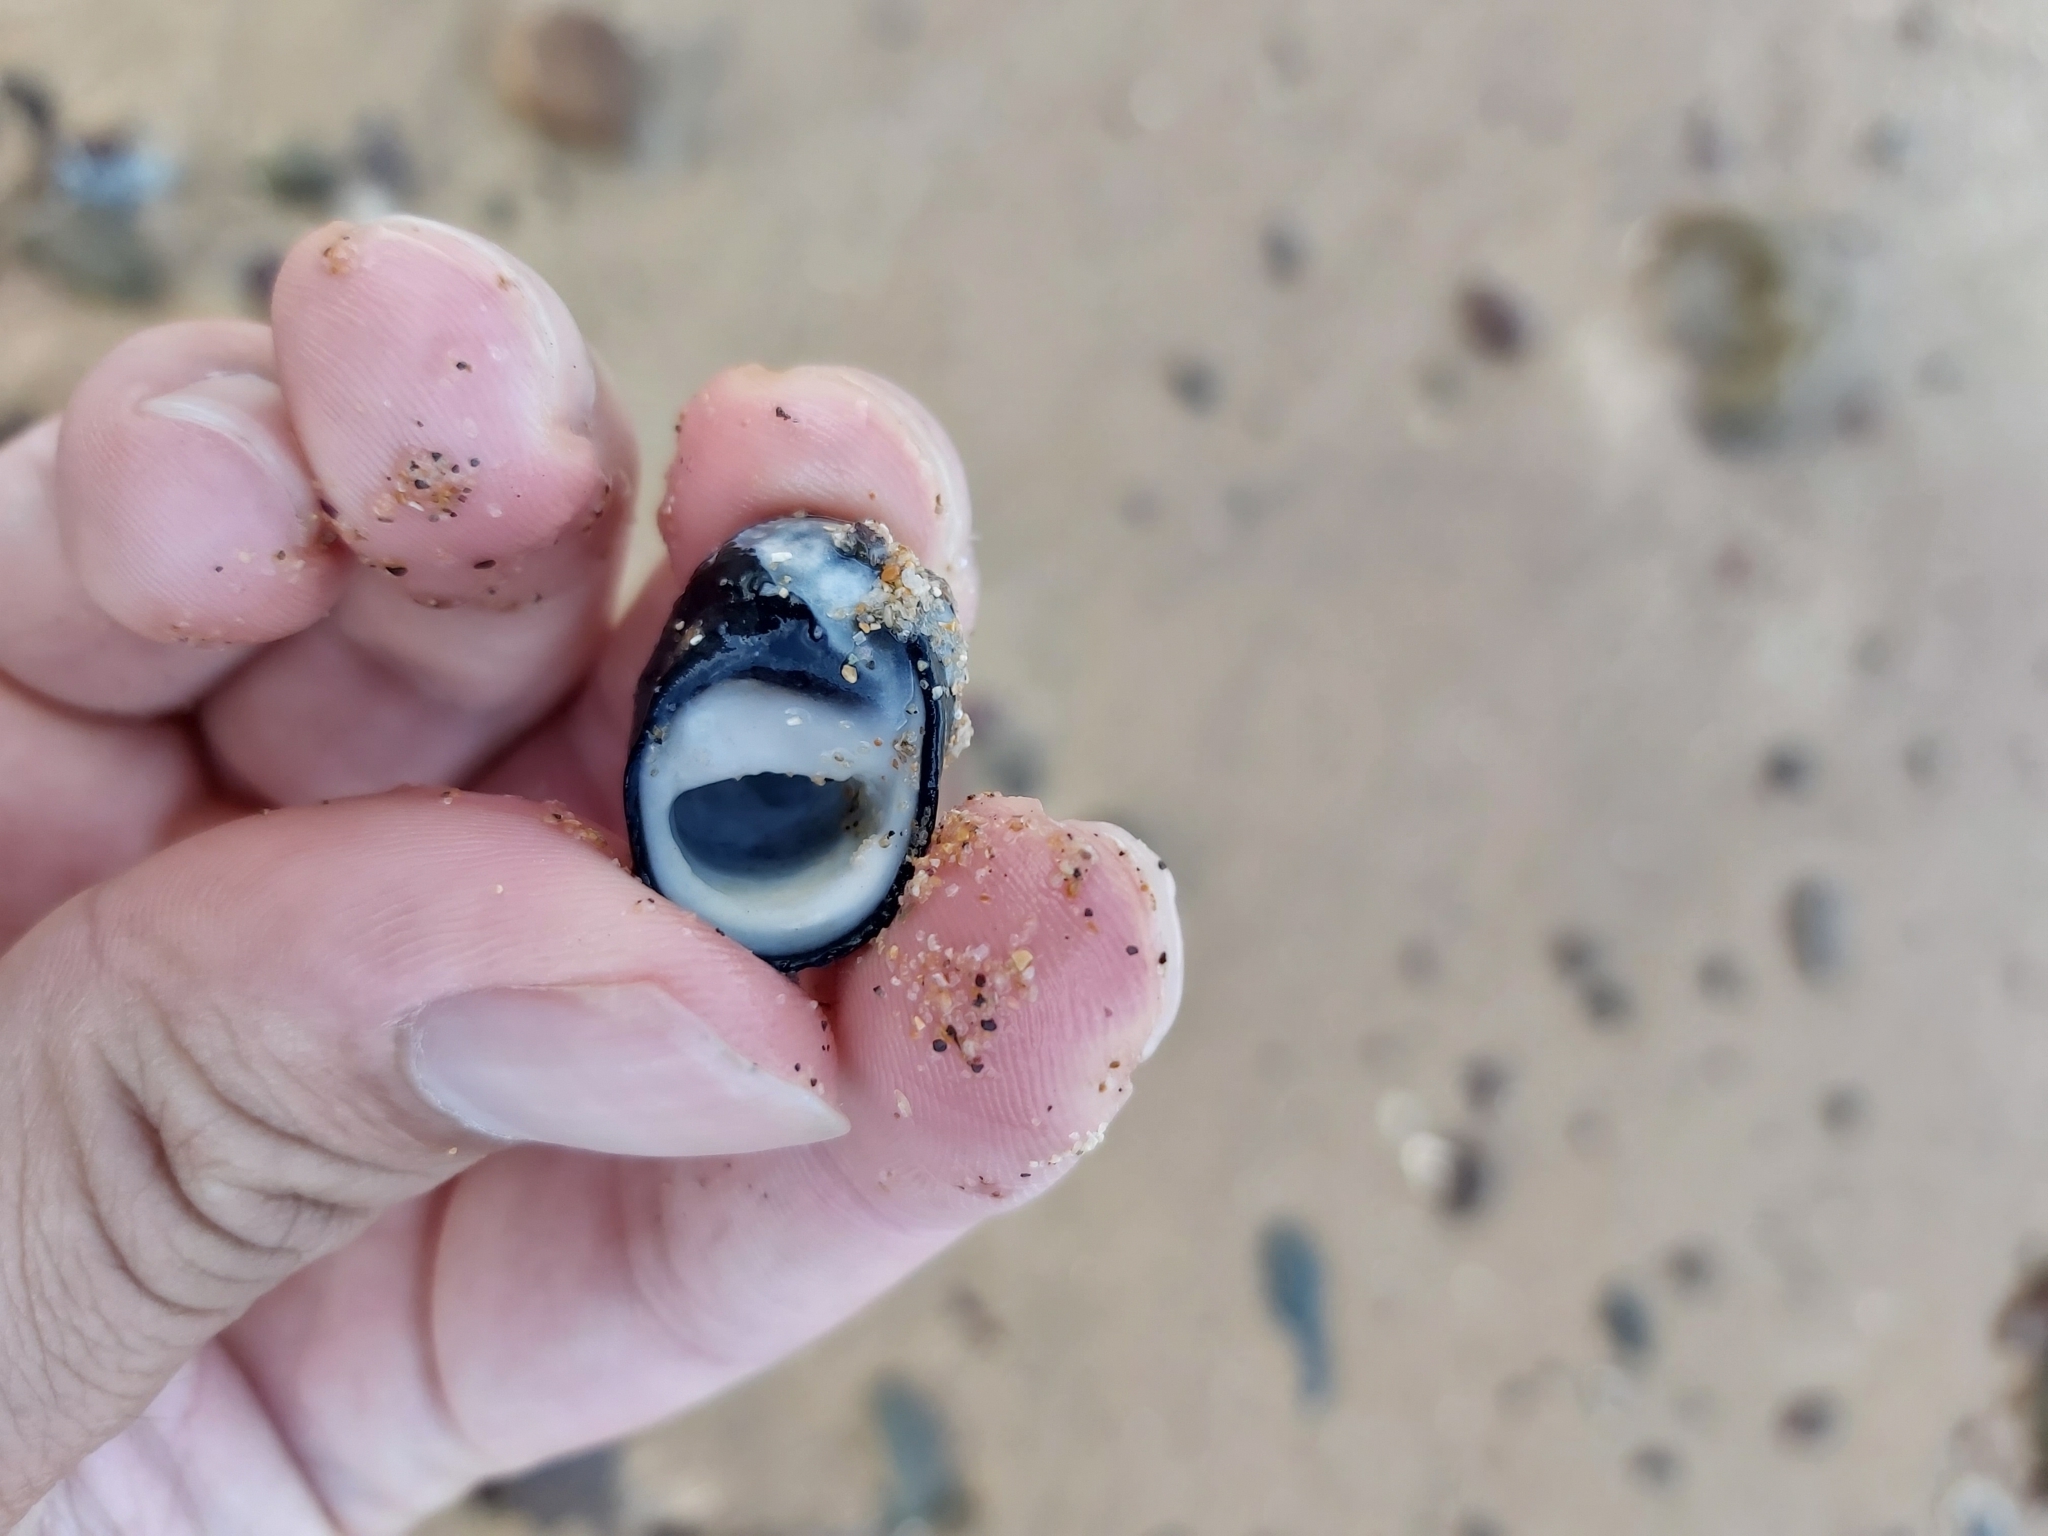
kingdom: Animalia
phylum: Mollusca
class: Gastropoda
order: Cycloneritida
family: Neritidae
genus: Nerita
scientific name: Nerita melanotragus
